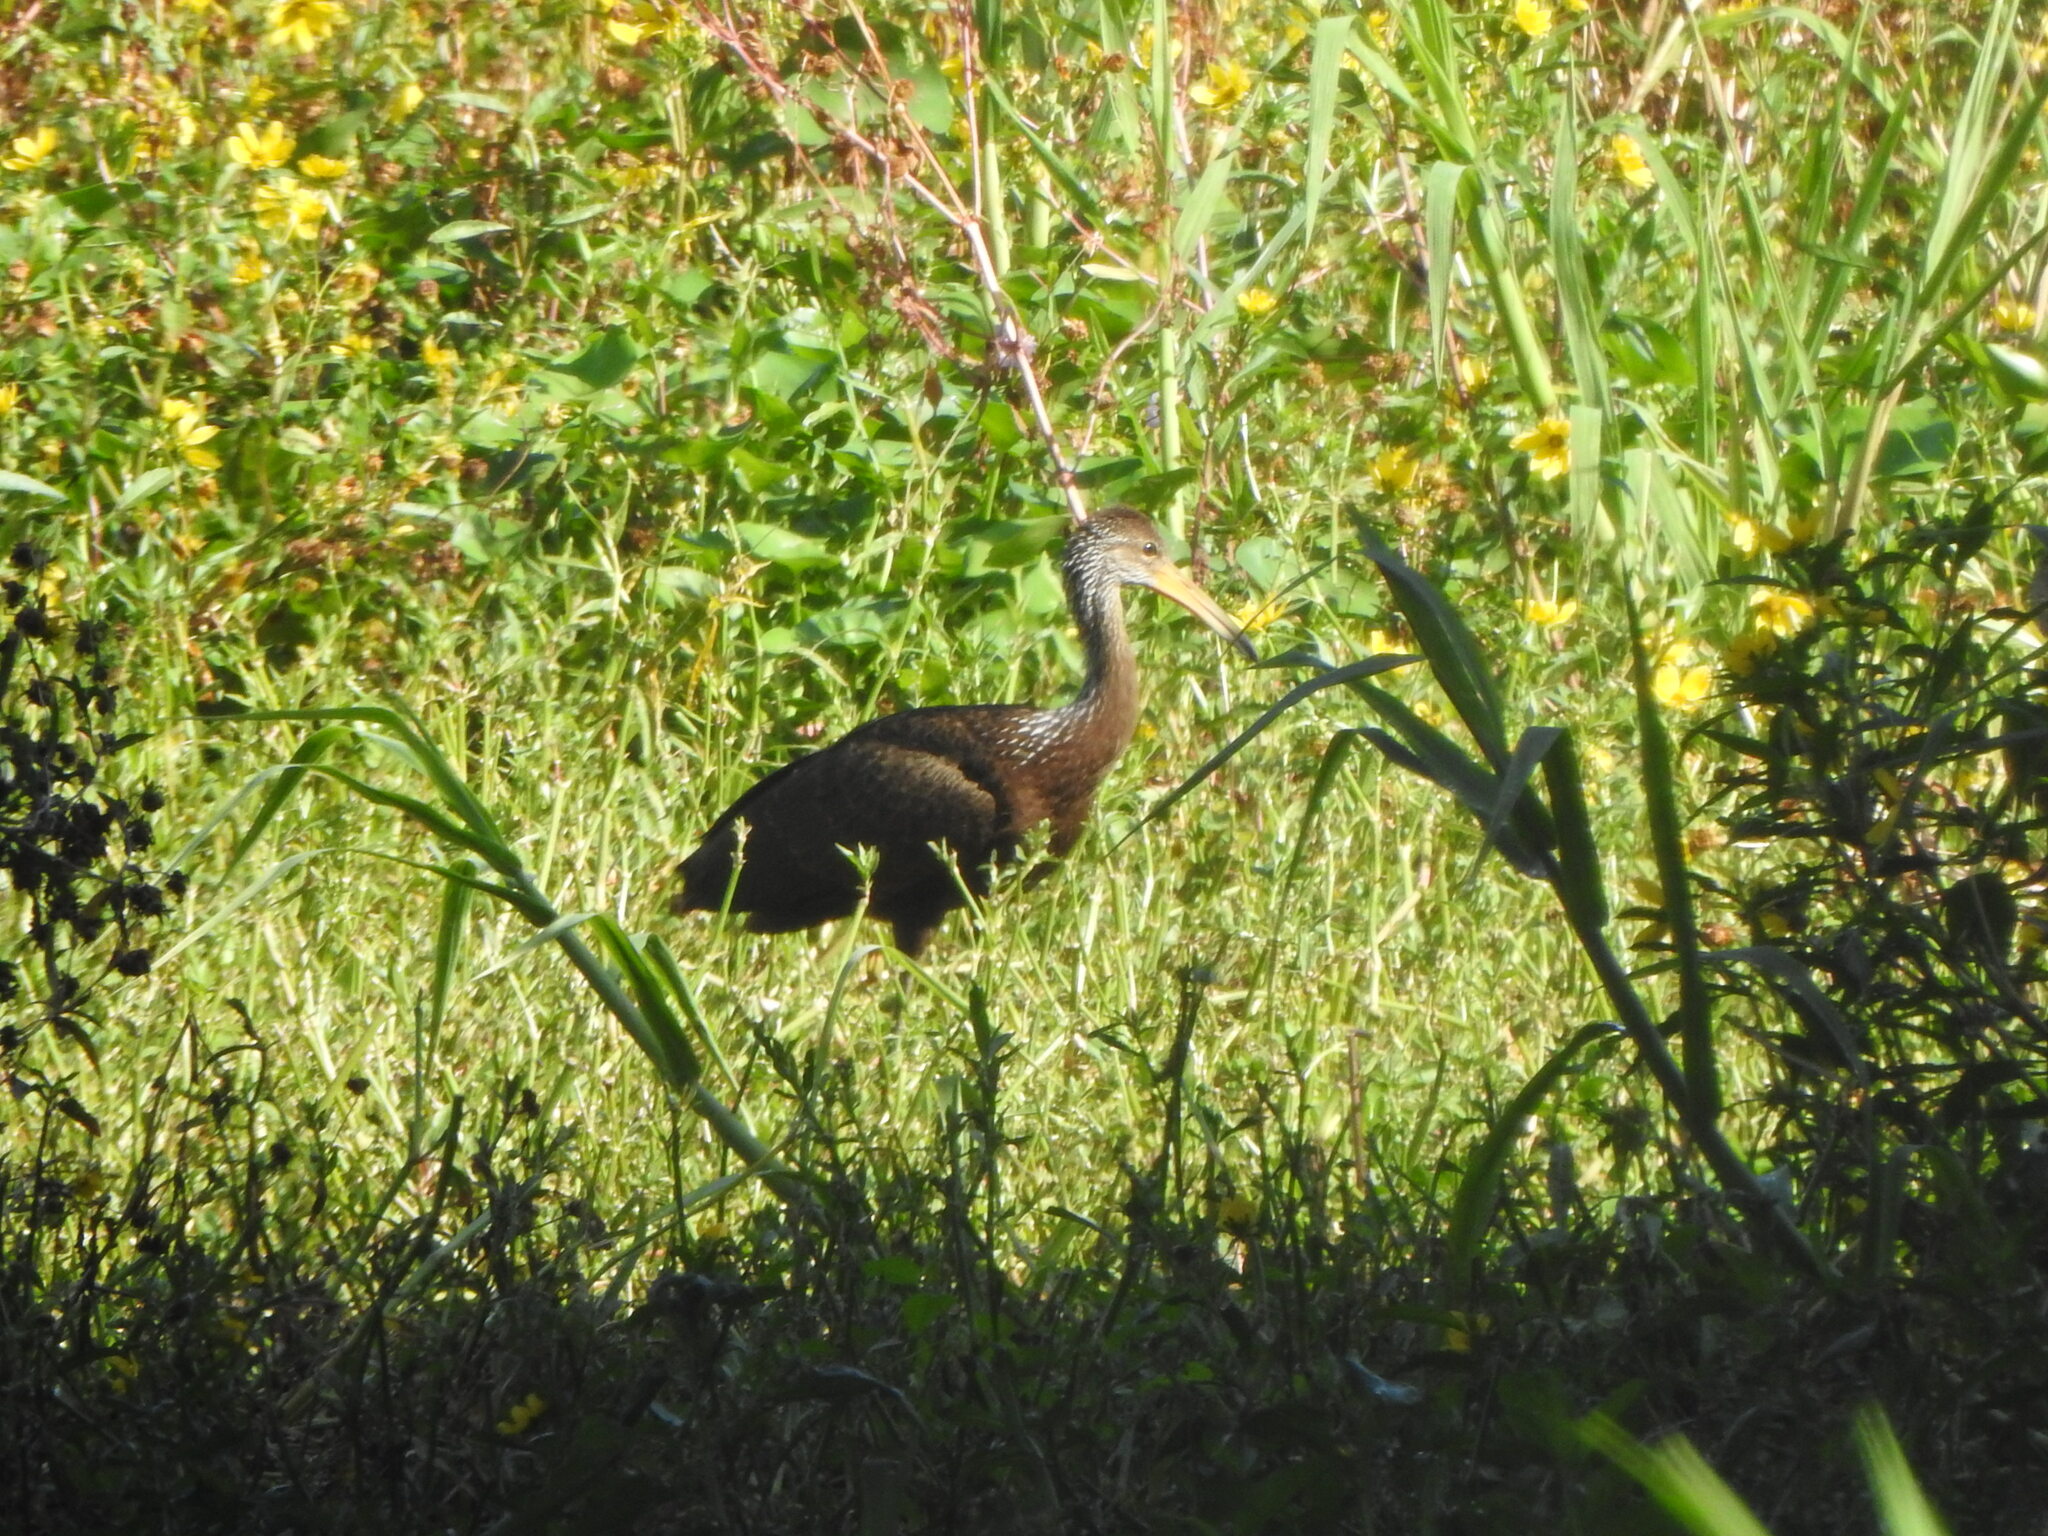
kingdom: Animalia
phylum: Chordata
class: Aves
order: Gruiformes
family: Aramidae
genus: Aramus
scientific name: Aramus guarauna
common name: Limpkin
